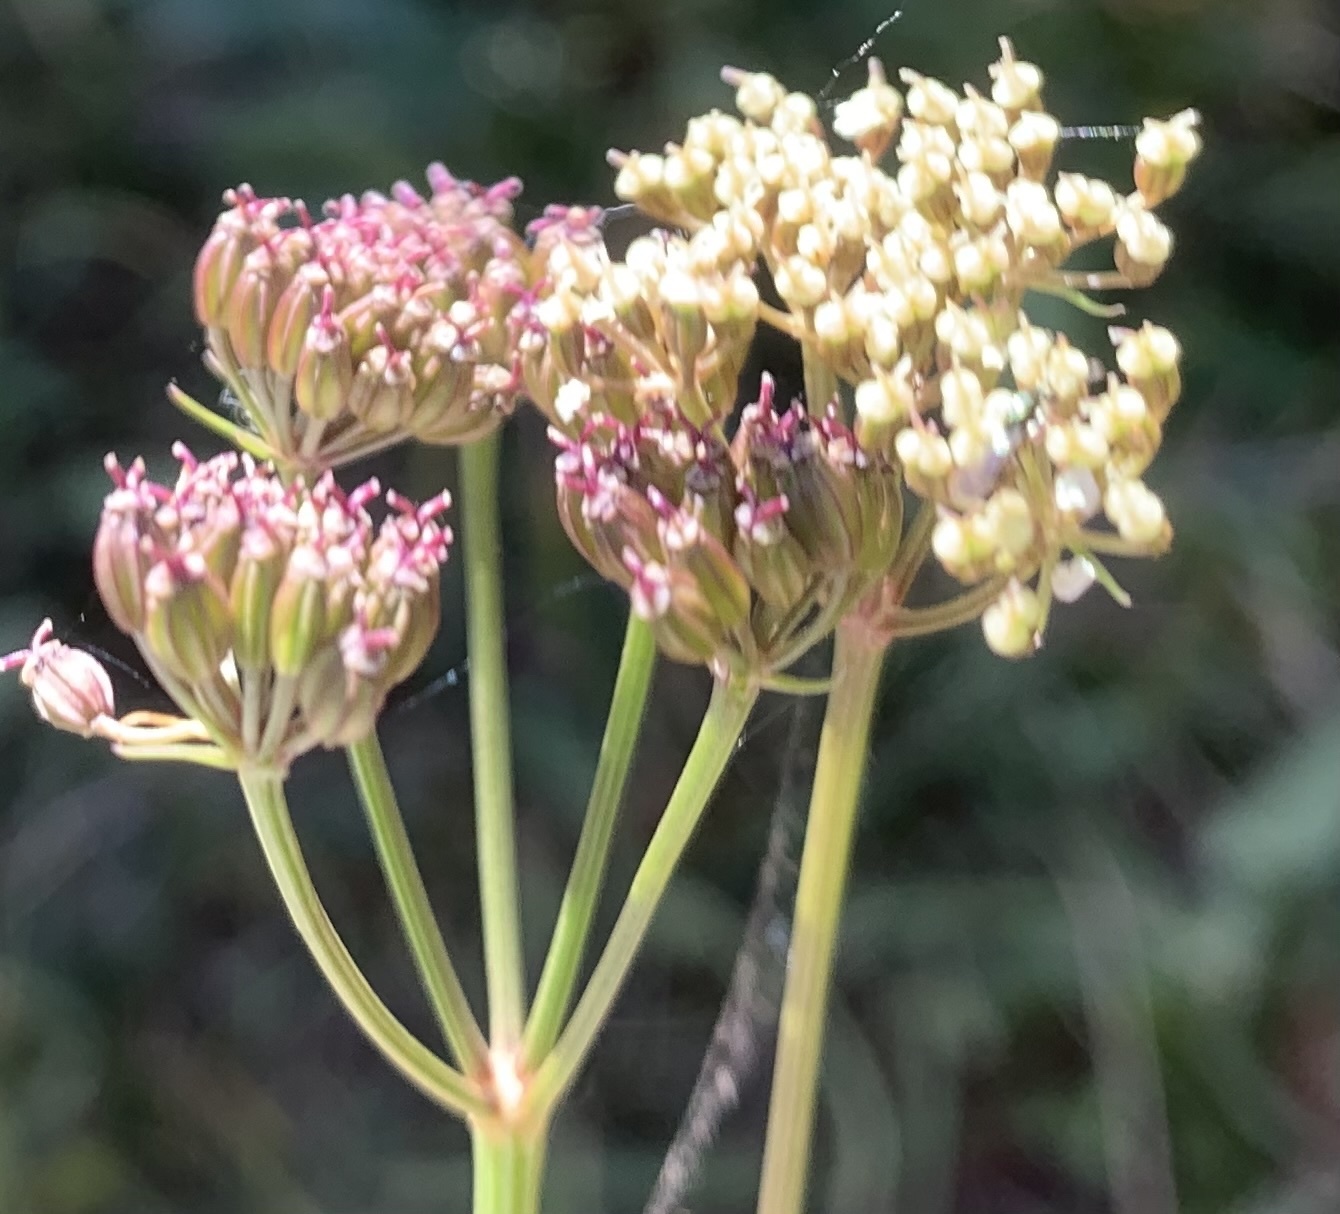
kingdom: Plantae
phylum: Tracheophyta
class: Magnoliopsida
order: Apiales
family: Apiaceae
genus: Ligusticum
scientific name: Ligusticum tenuifolium
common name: Idaho licorice-root
